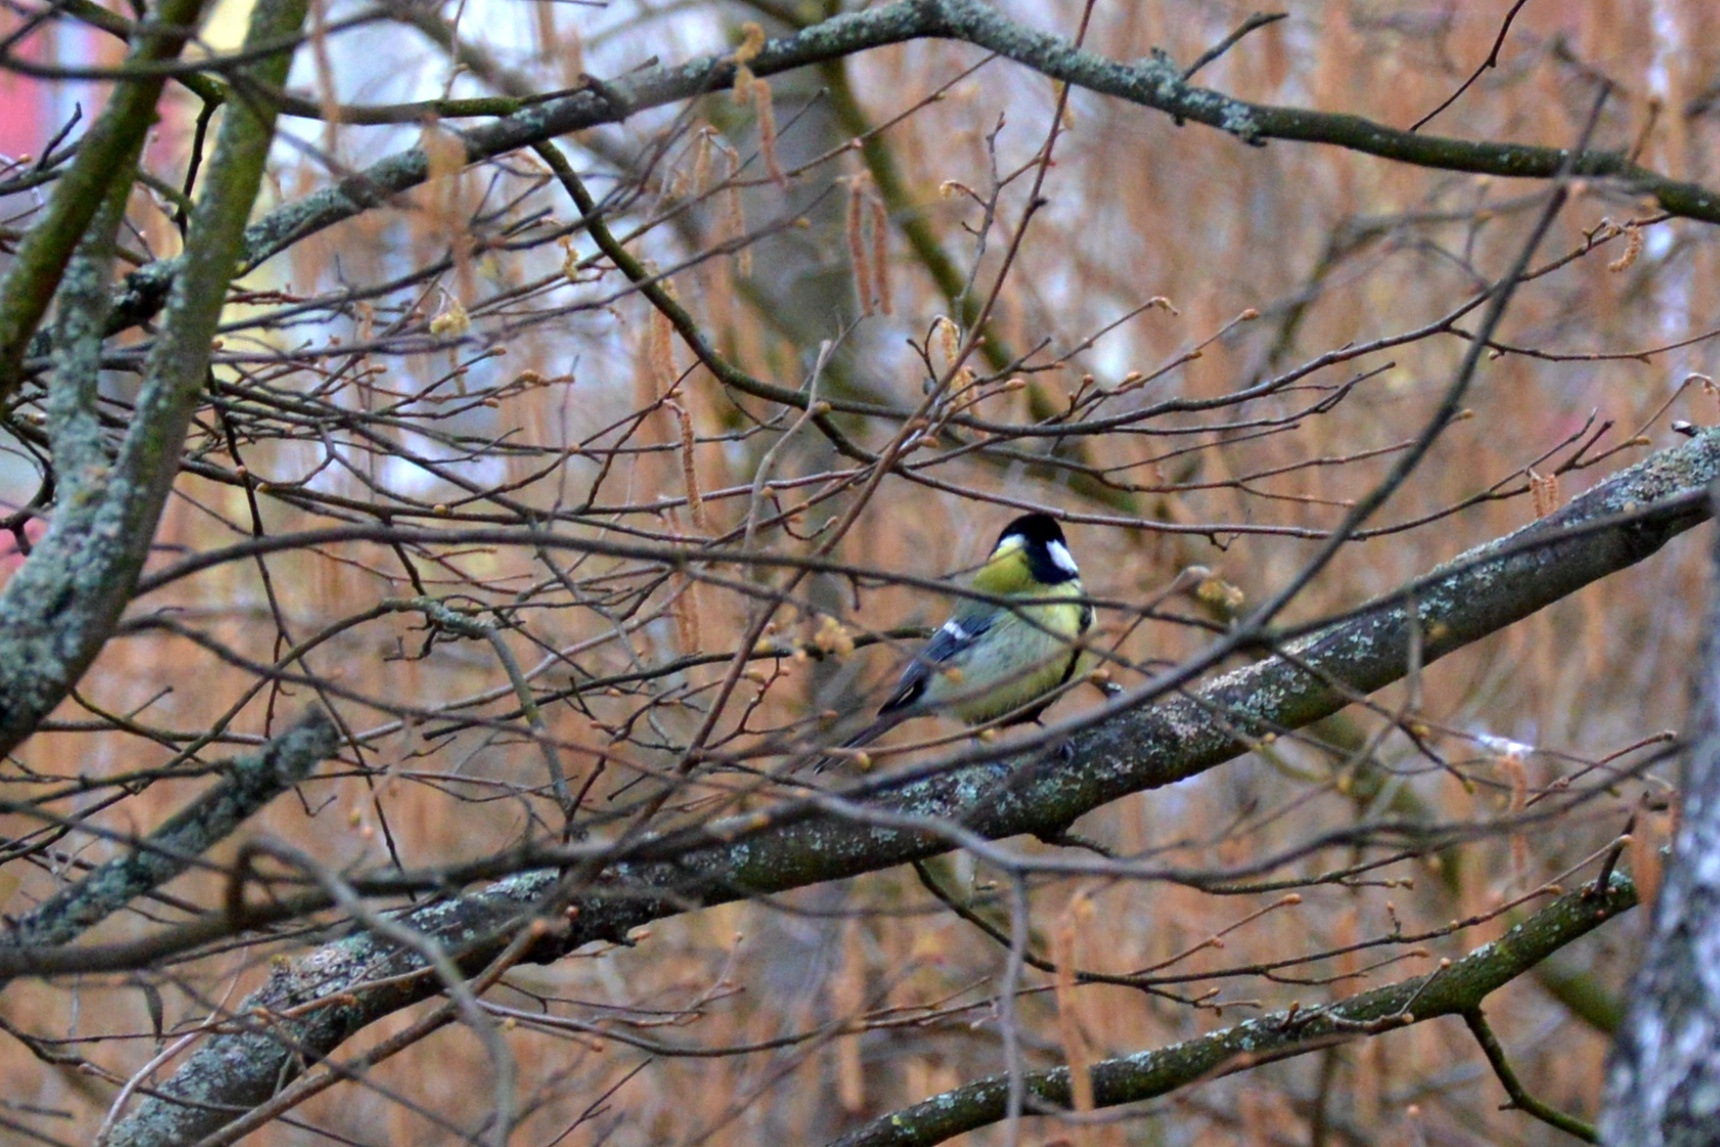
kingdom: Animalia
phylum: Chordata
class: Aves
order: Passeriformes
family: Paridae
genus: Parus
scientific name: Parus major
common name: Great tit
